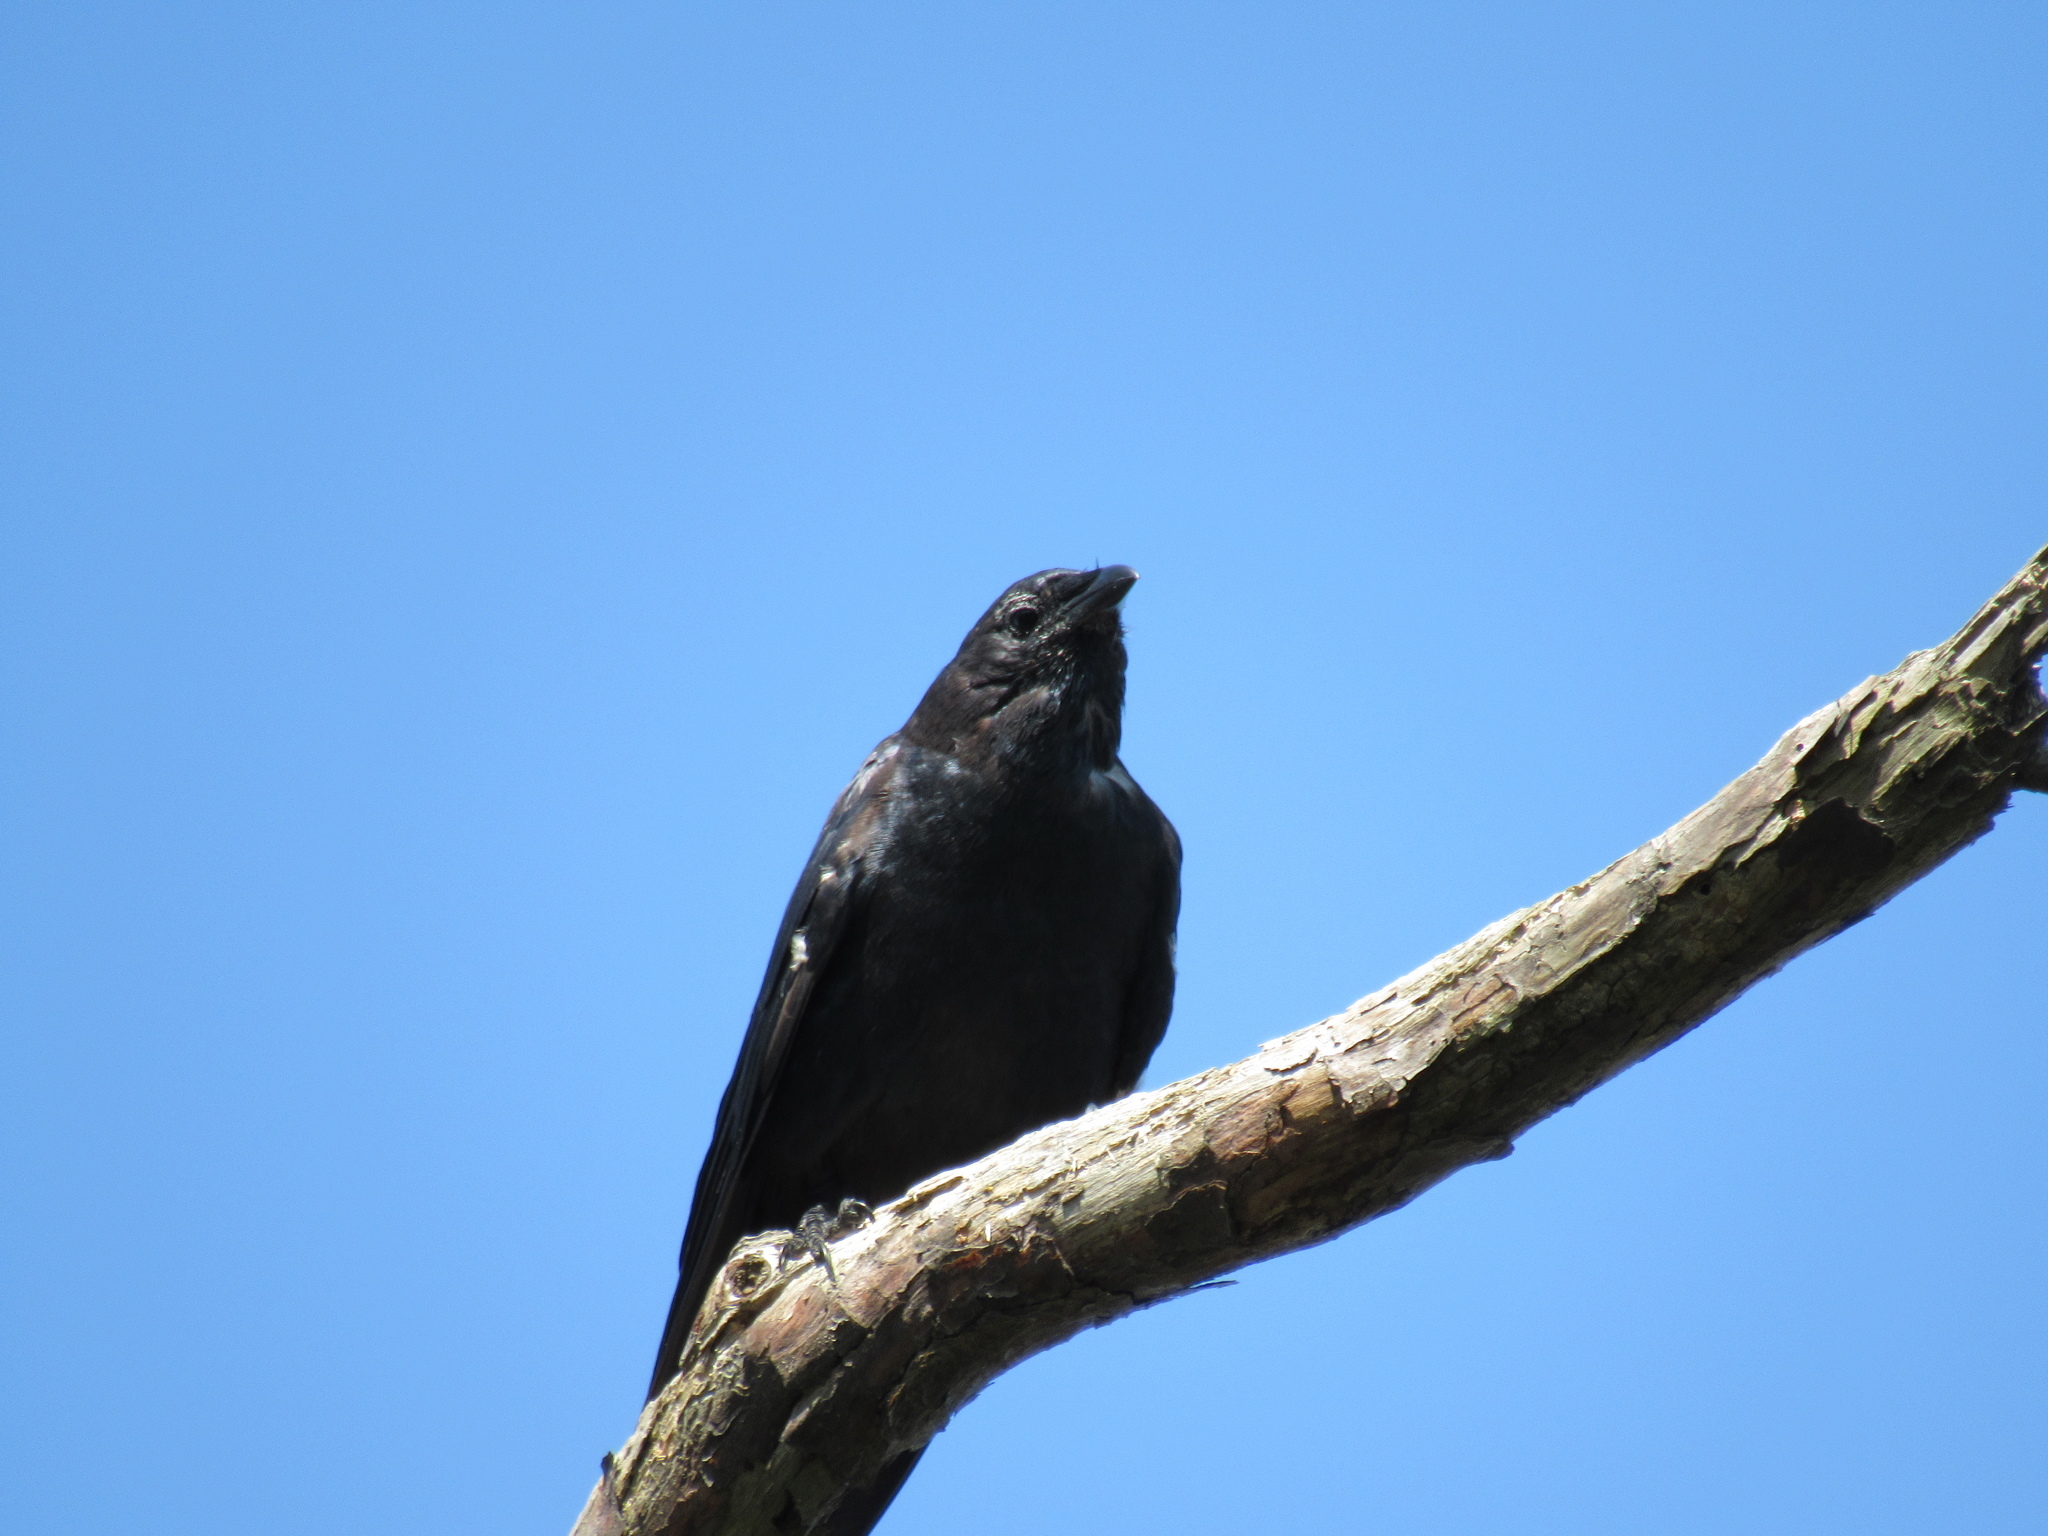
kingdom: Animalia
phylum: Chordata
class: Aves
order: Passeriformes
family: Corvidae
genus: Corvus
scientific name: Corvus
